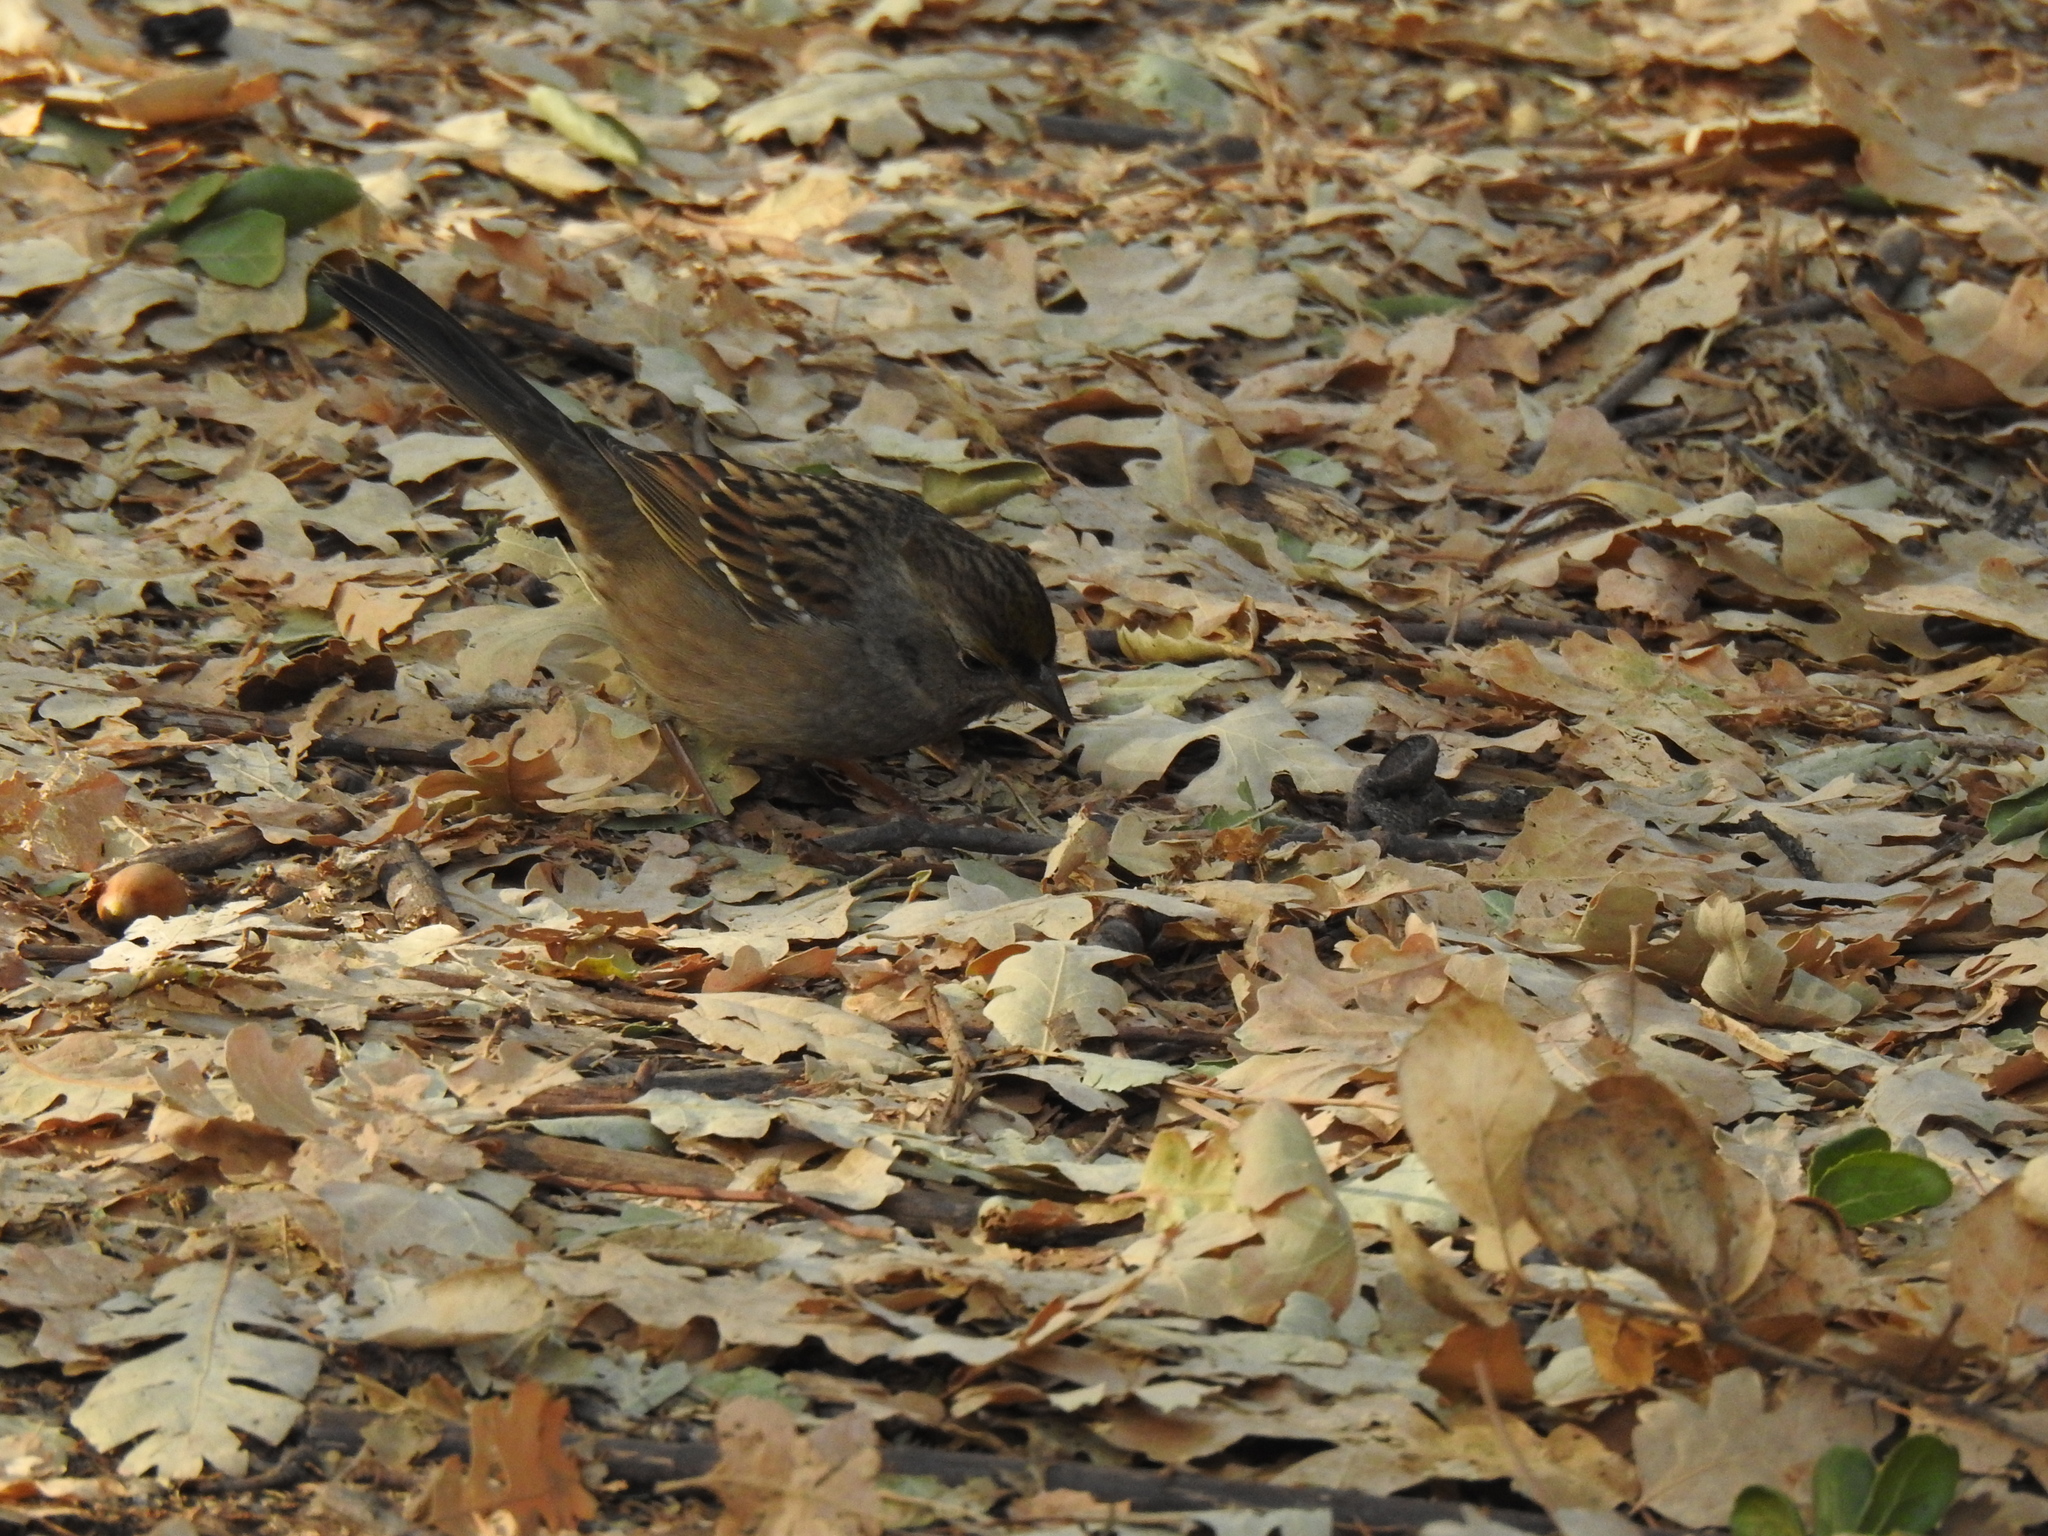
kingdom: Animalia
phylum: Chordata
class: Aves
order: Passeriformes
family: Passerellidae
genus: Zonotrichia
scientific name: Zonotrichia atricapilla
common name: Golden-crowned sparrow
